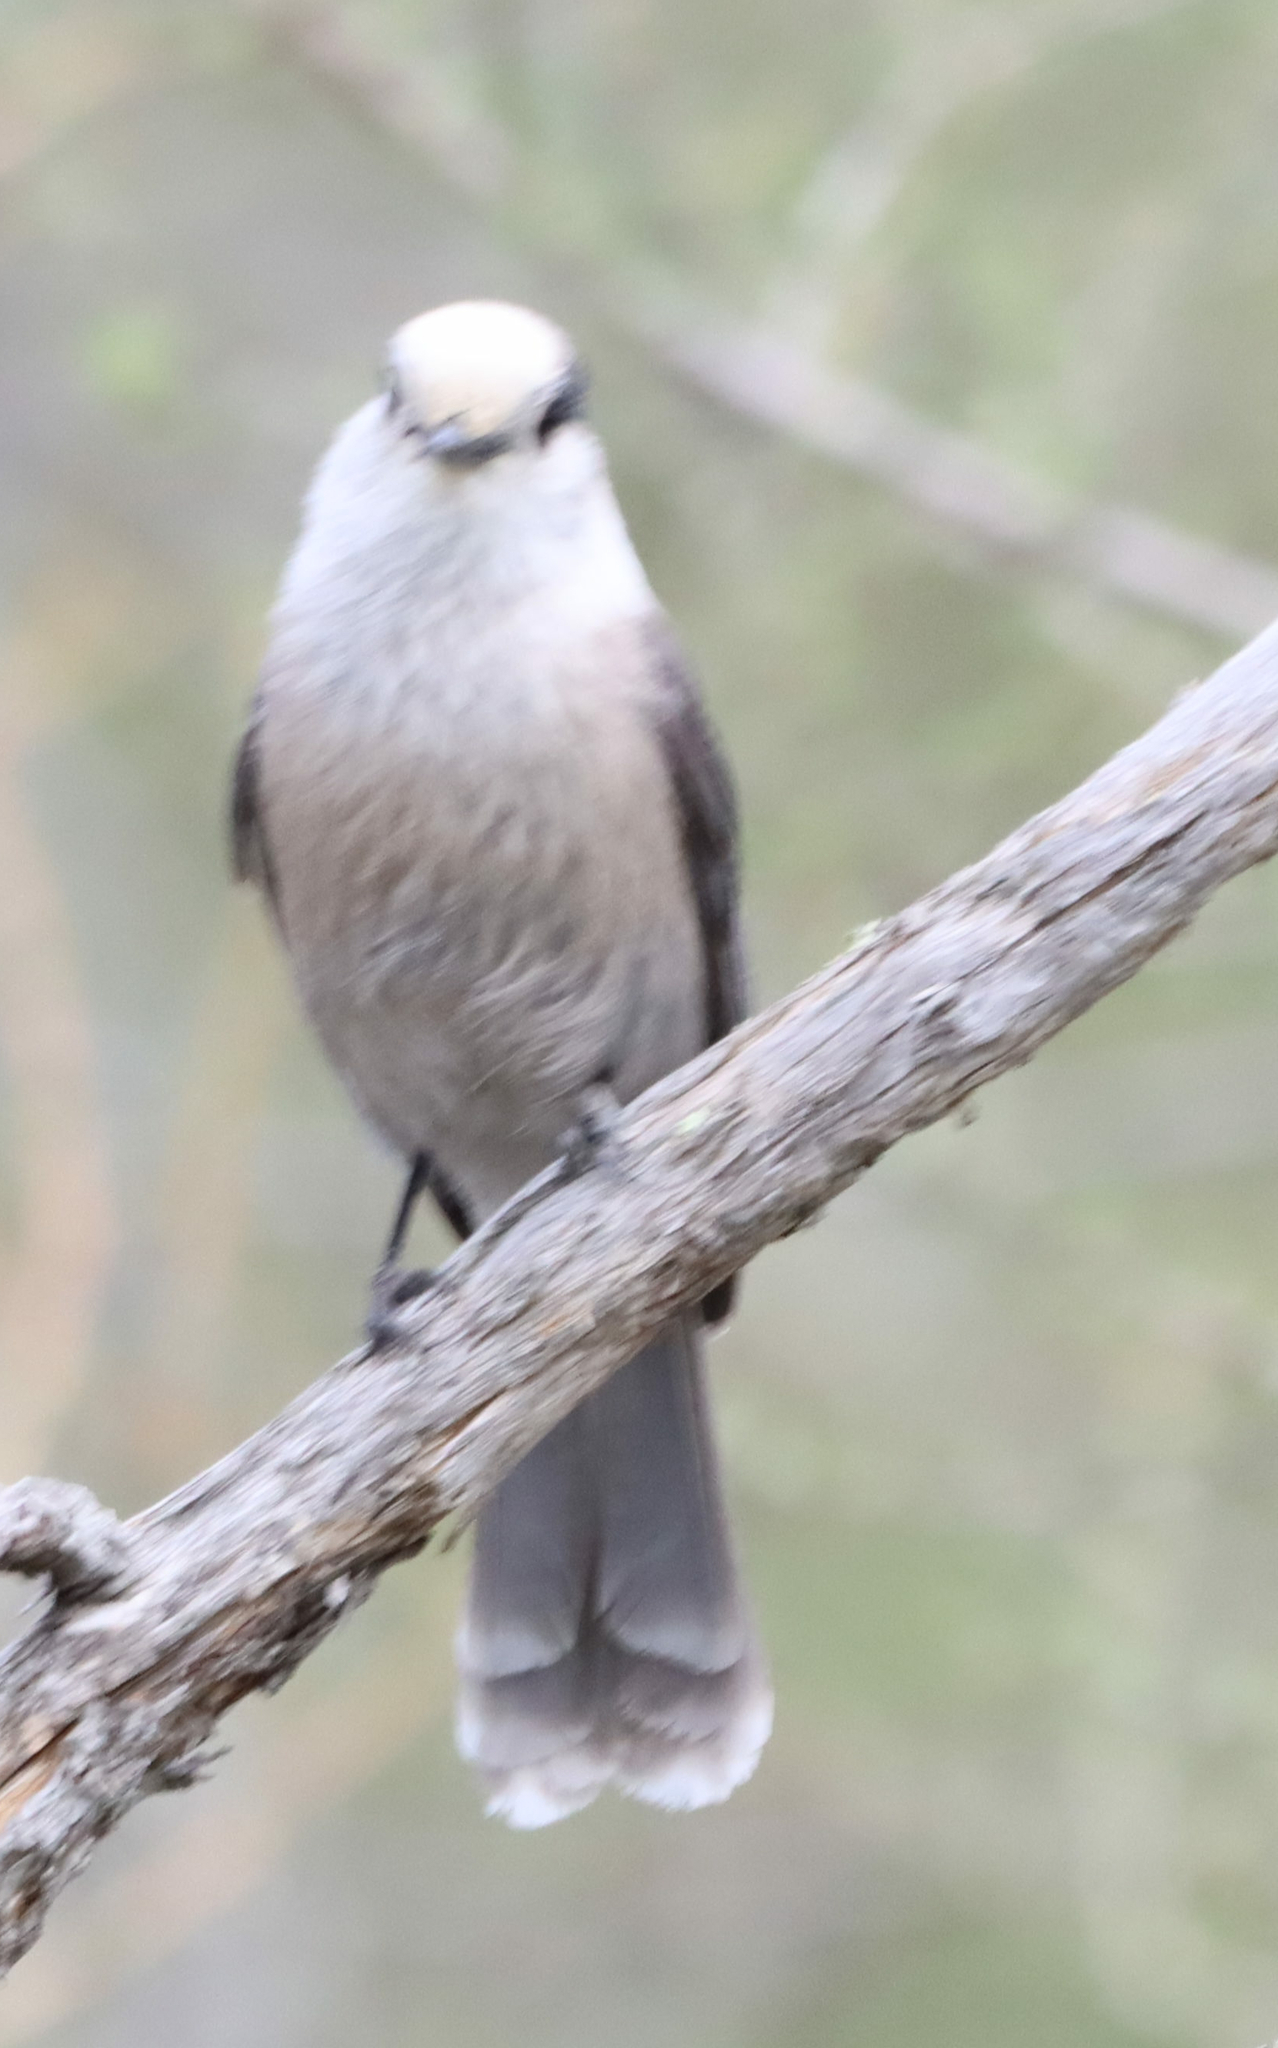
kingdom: Animalia
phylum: Chordata
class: Aves
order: Passeriformes
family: Corvidae
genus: Perisoreus
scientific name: Perisoreus canadensis
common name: Gray jay
